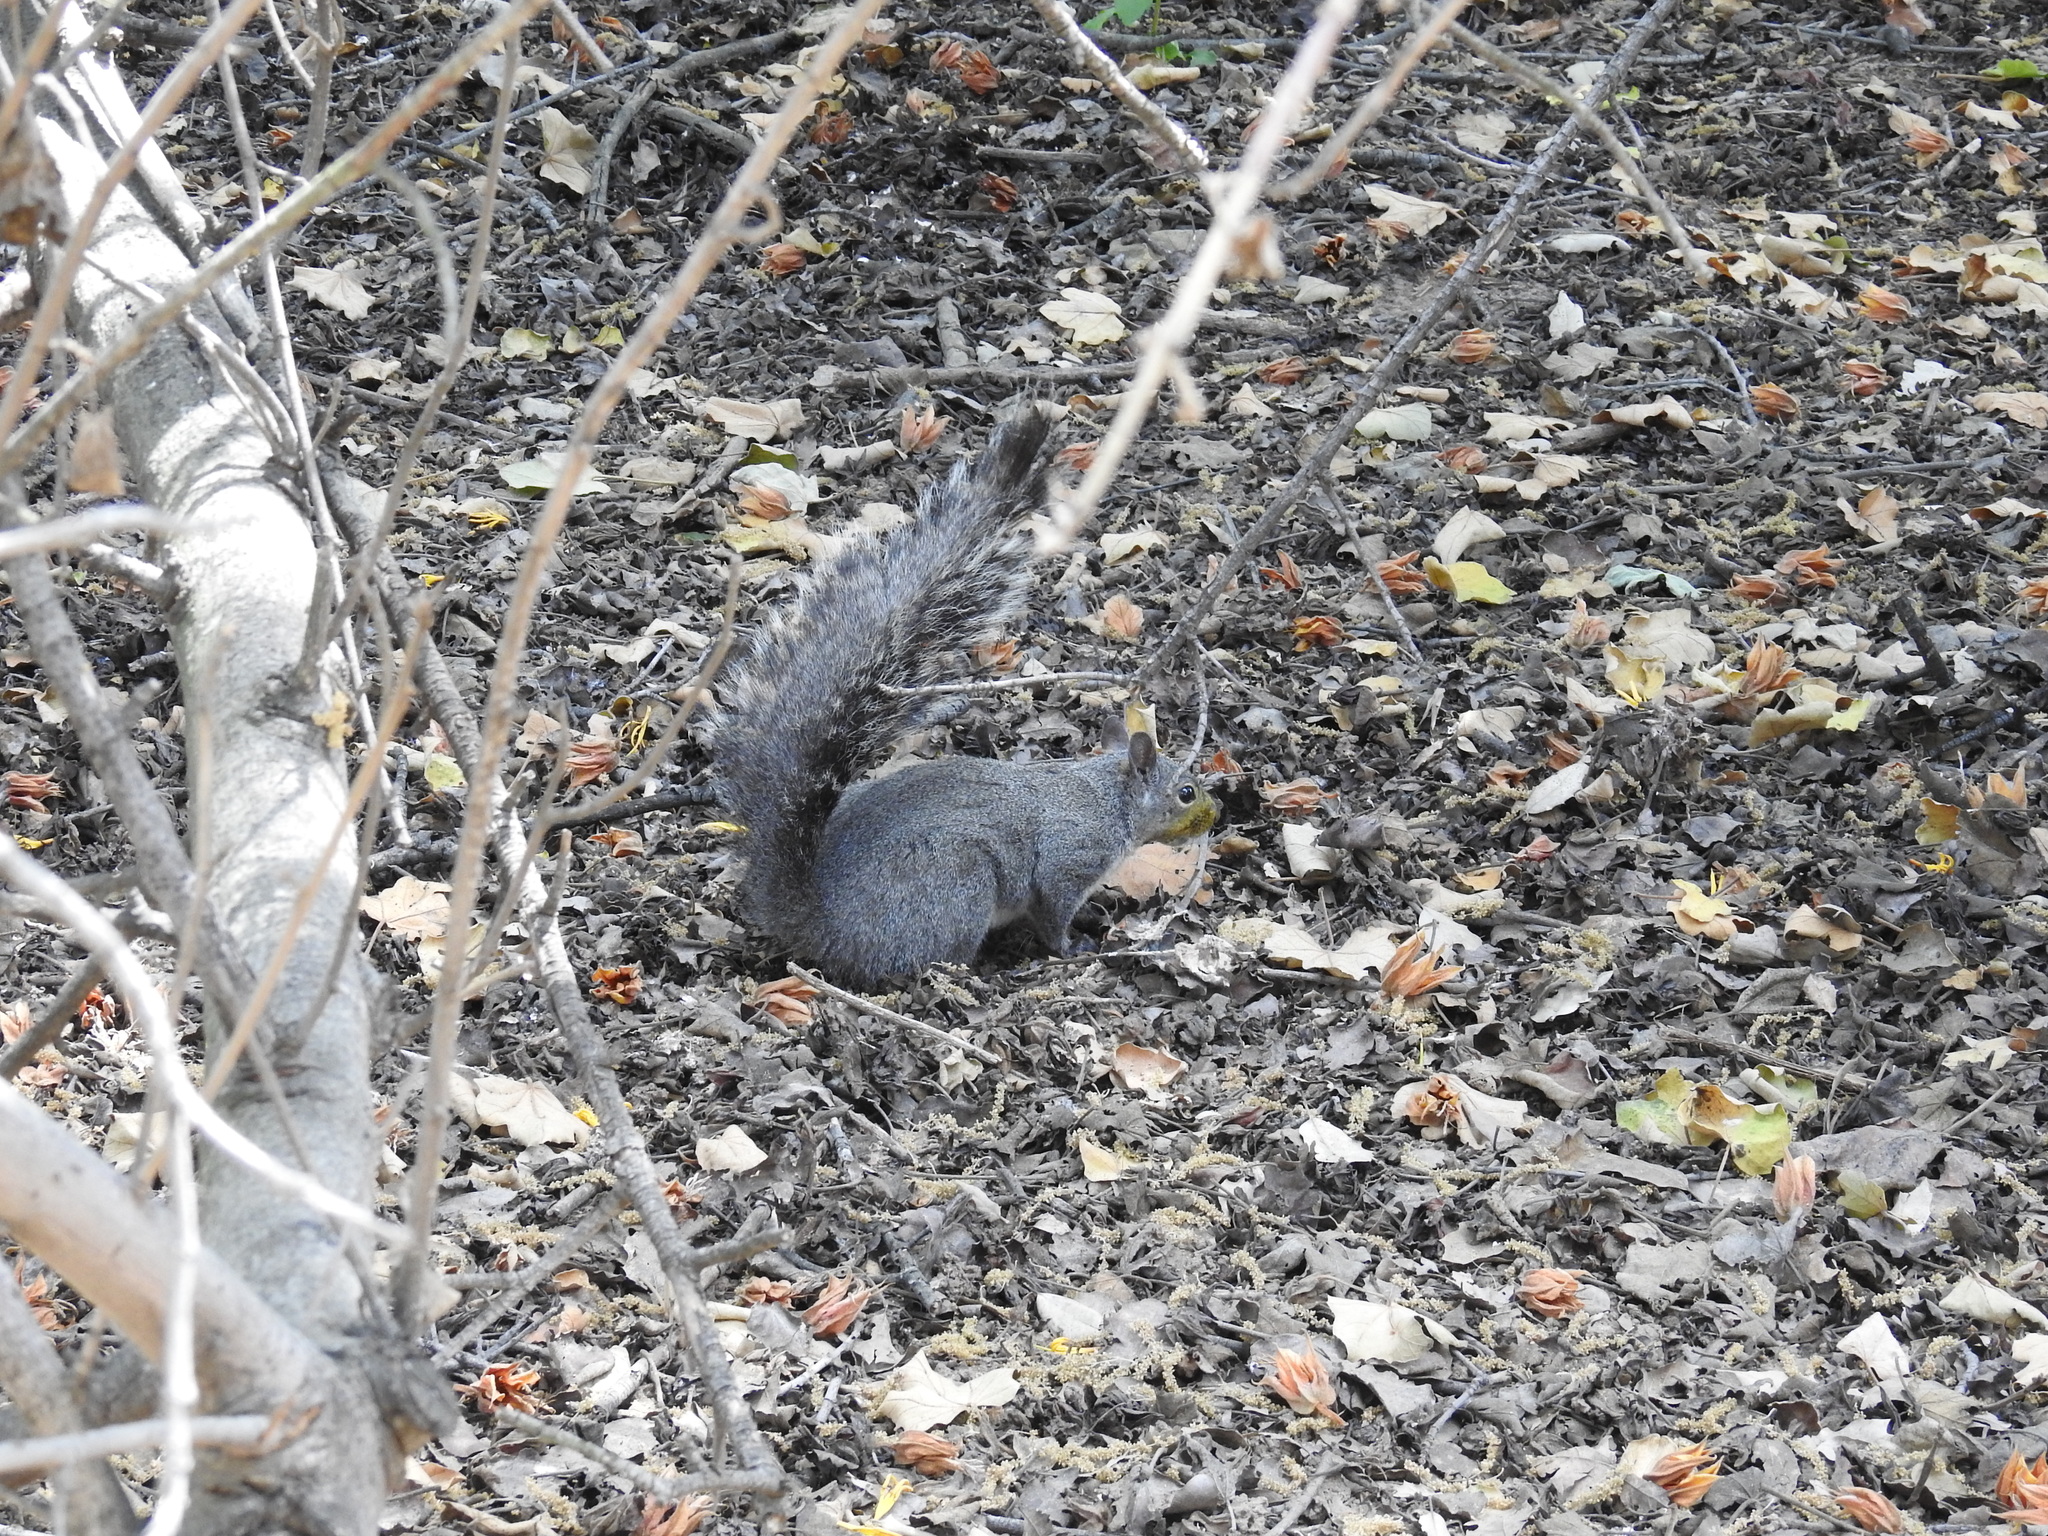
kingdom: Animalia
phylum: Chordata
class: Mammalia
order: Rodentia
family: Sciuridae
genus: Sciurus
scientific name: Sciurus griseus
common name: Western gray squirrel
